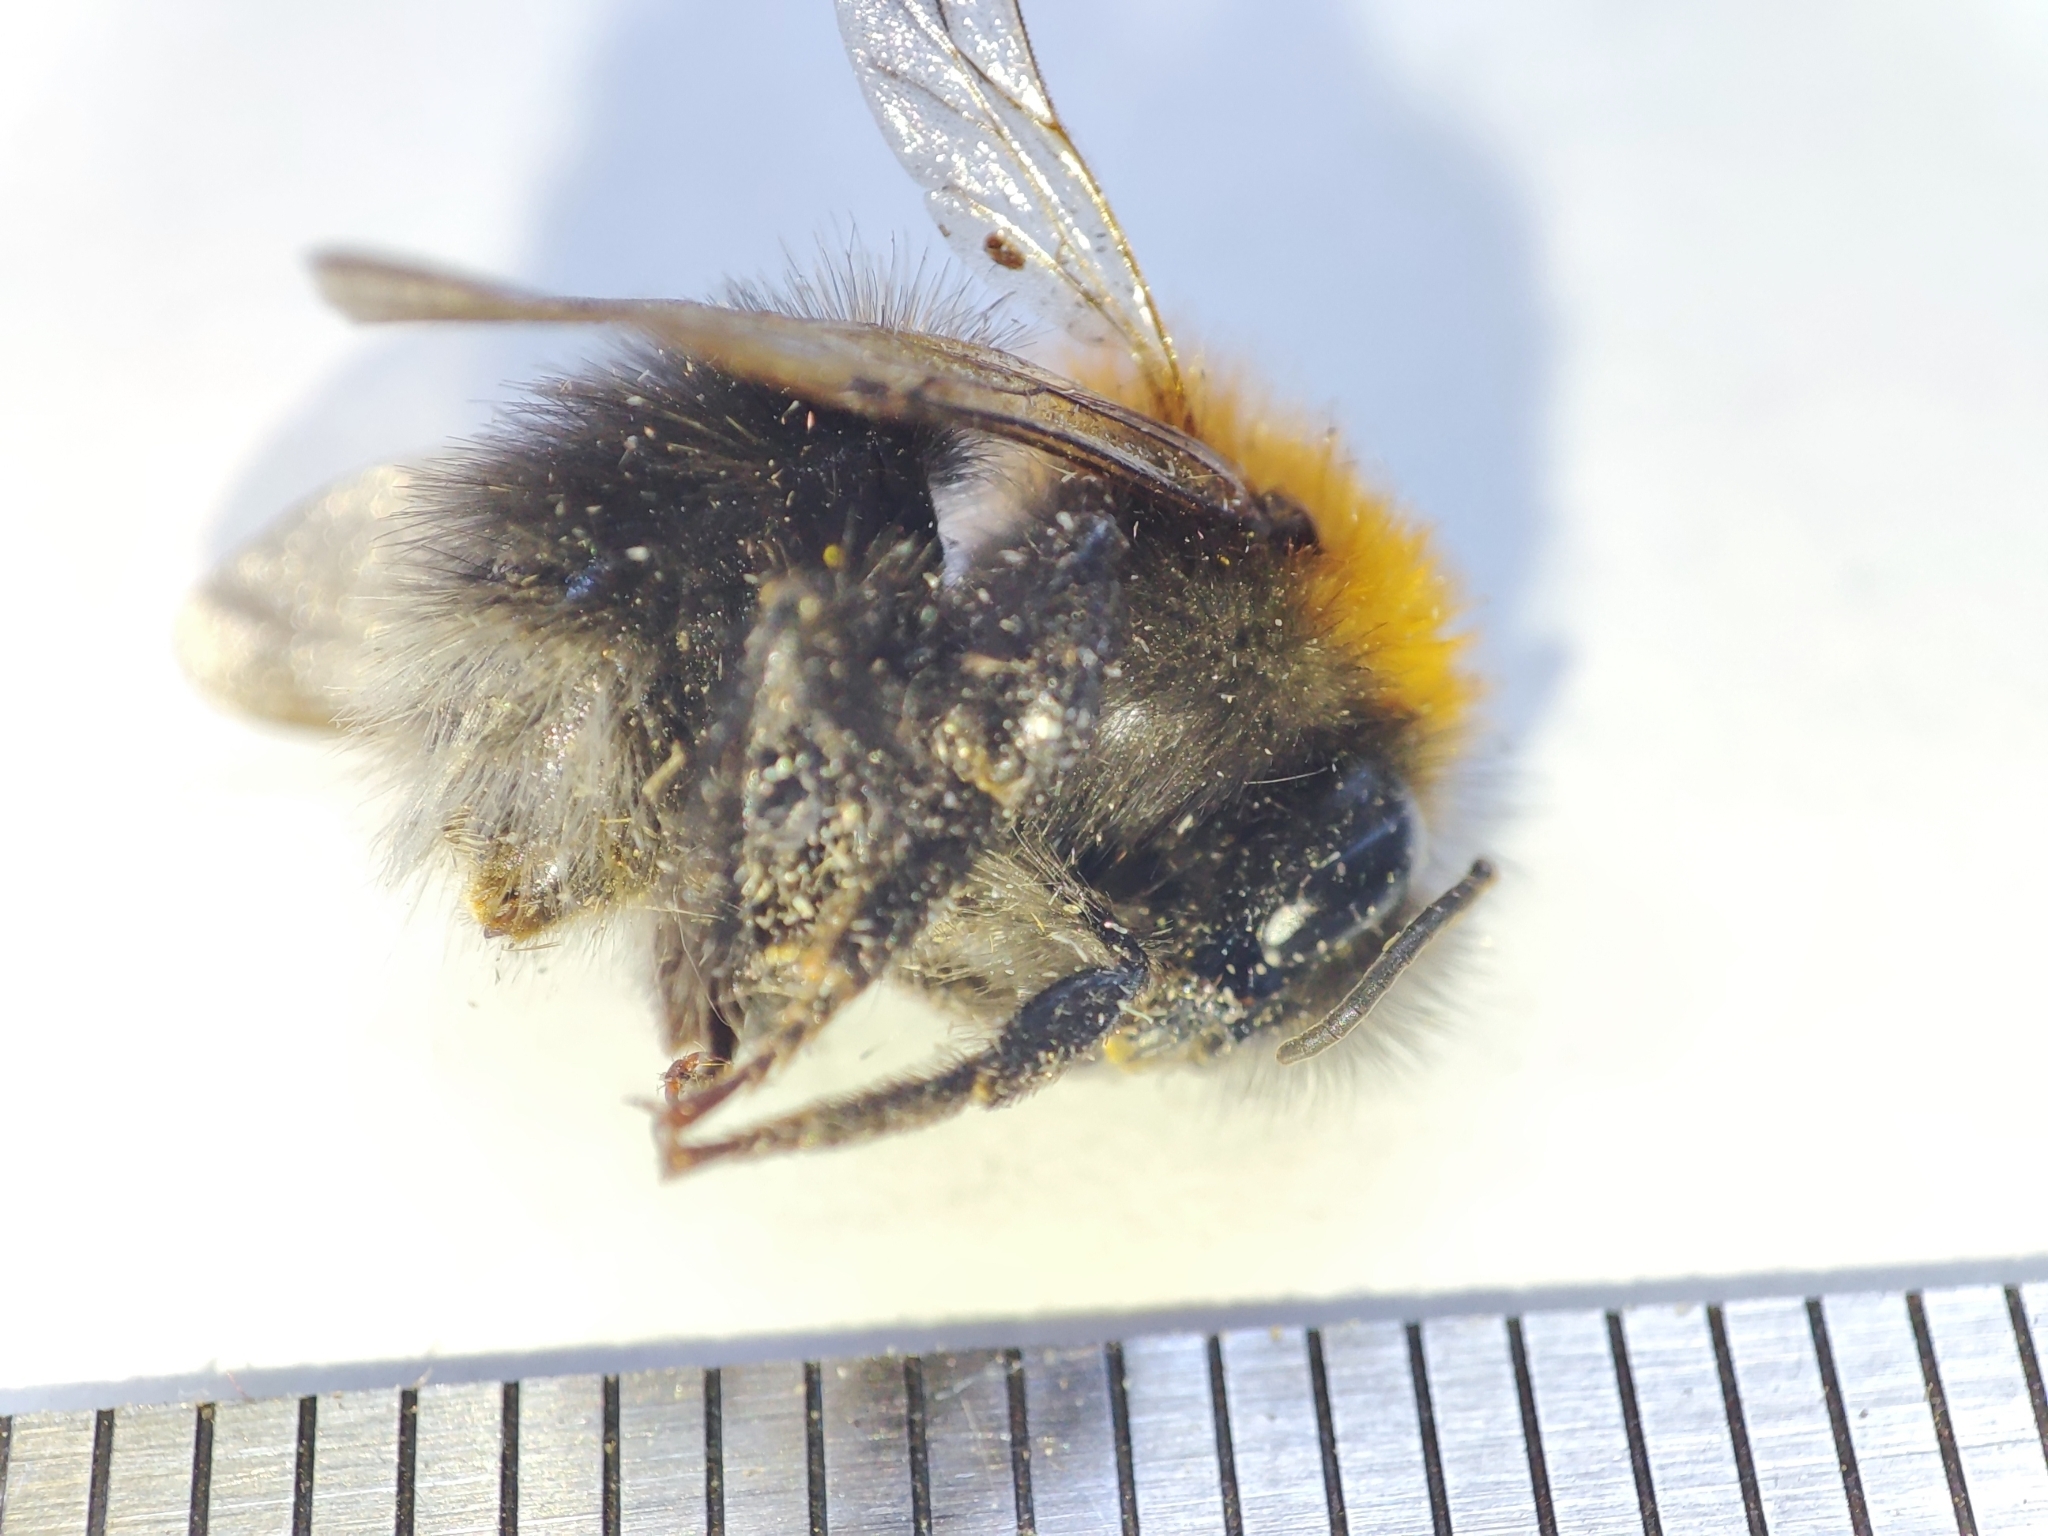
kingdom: Animalia
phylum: Arthropoda
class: Insecta
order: Hymenoptera
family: Apidae
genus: Bombus
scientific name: Bombus hypnorum
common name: New garden bumblebee
